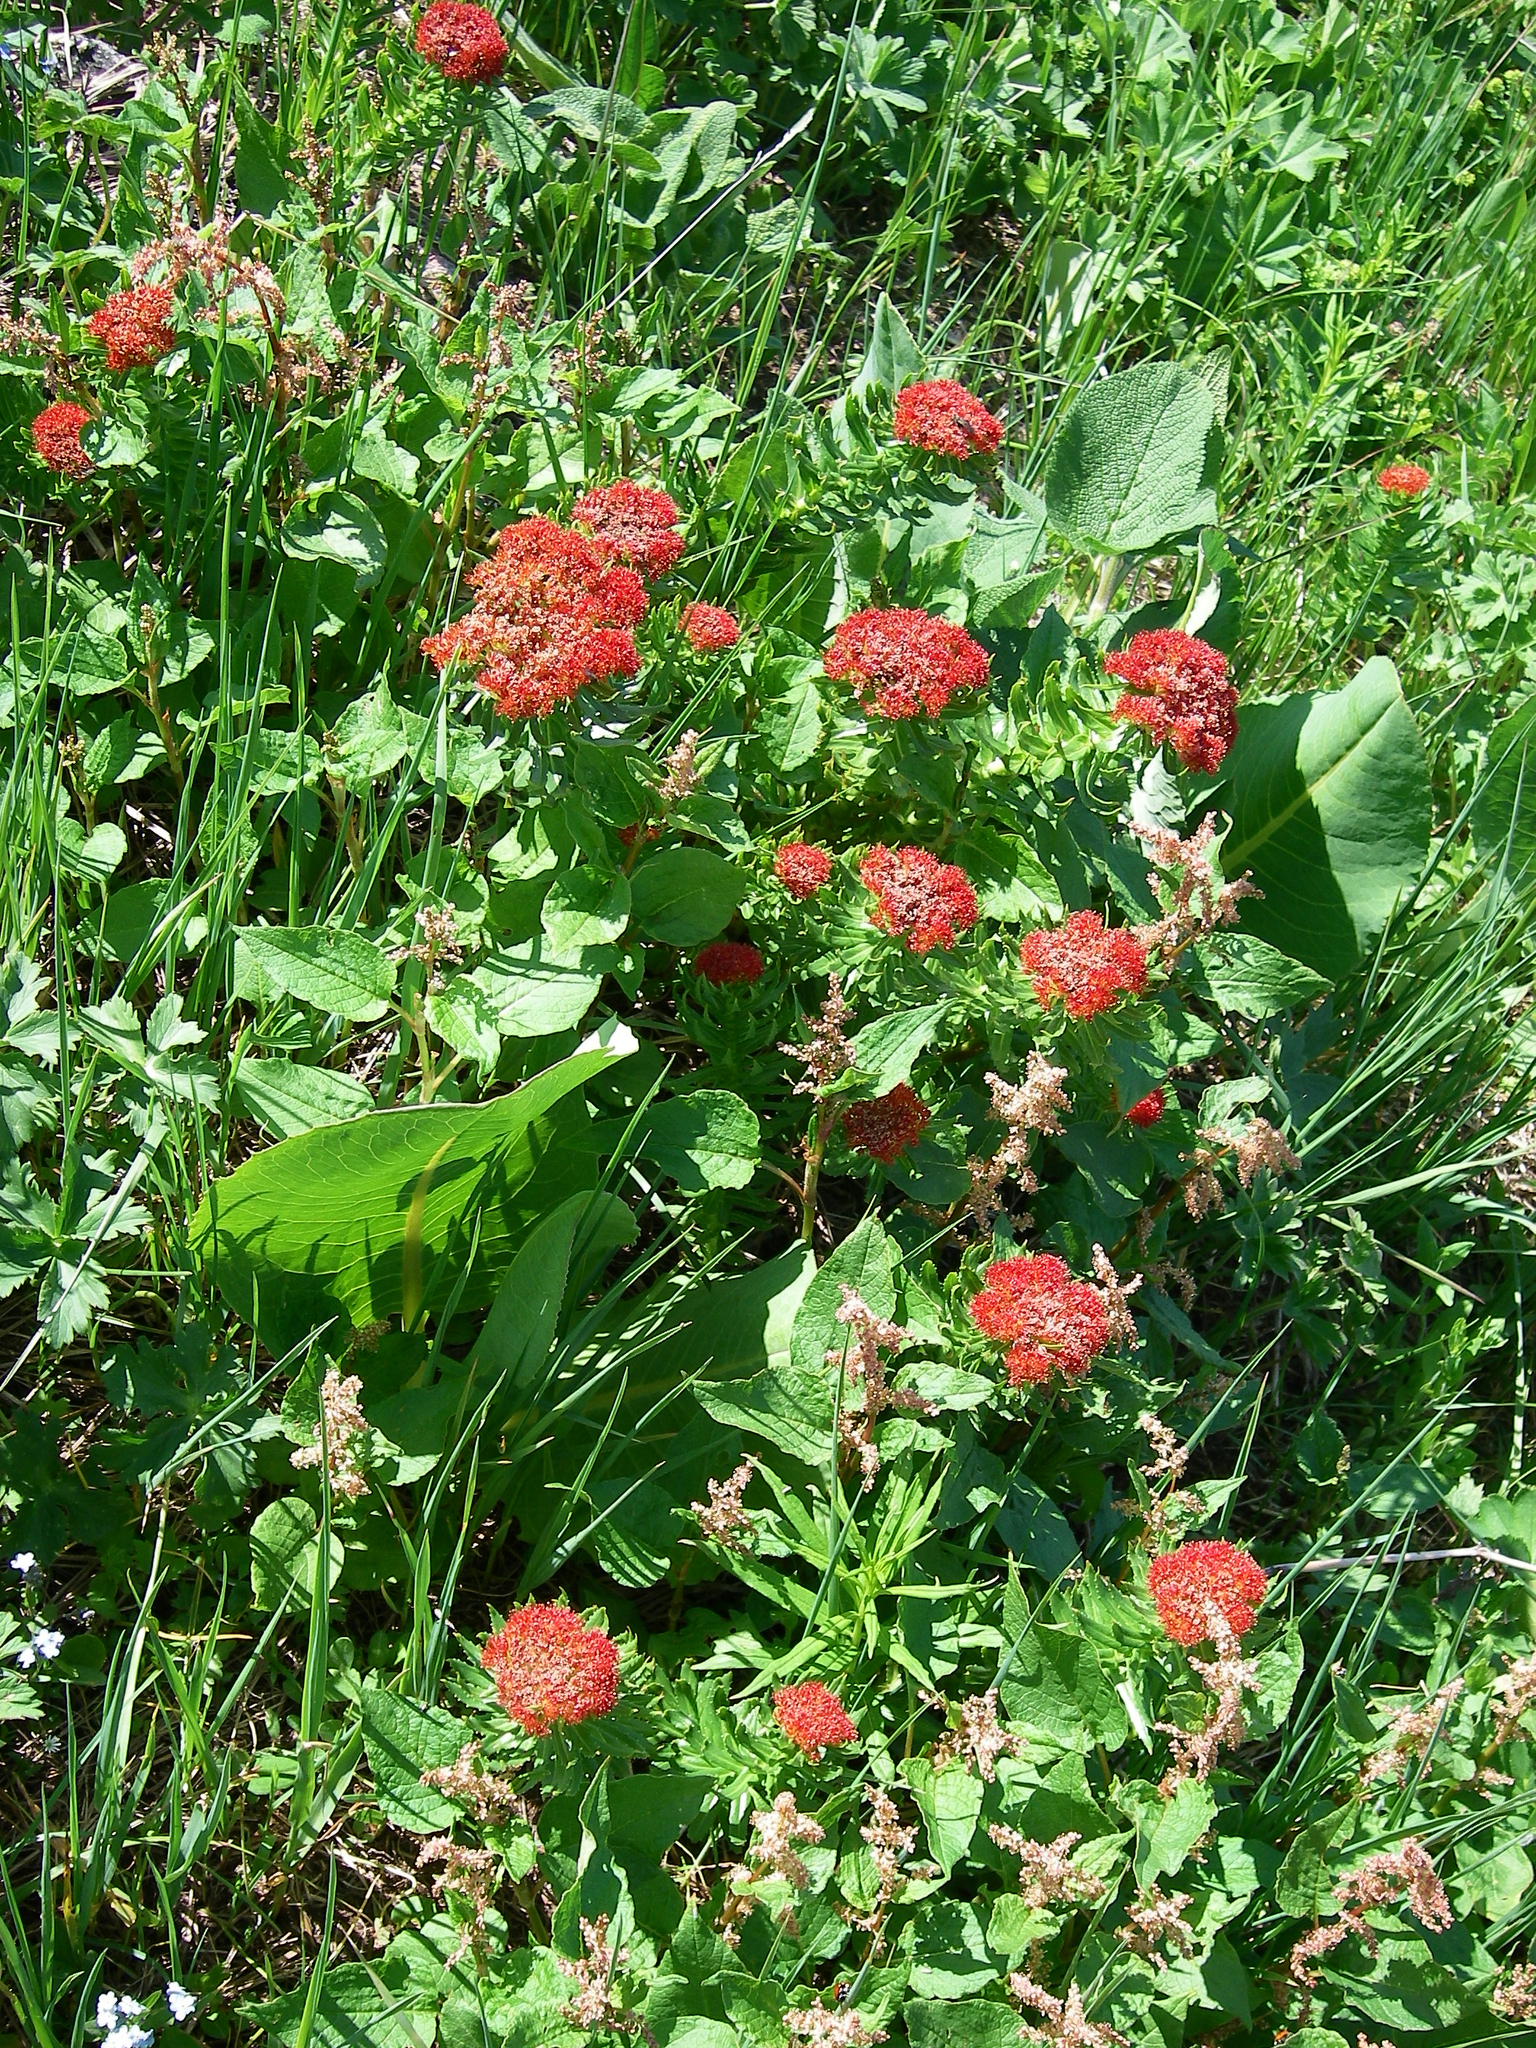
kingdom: Plantae
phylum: Tracheophyta
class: Magnoliopsida
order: Saxifragales
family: Crassulaceae
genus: Rhodiola
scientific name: Rhodiola kirilowii
